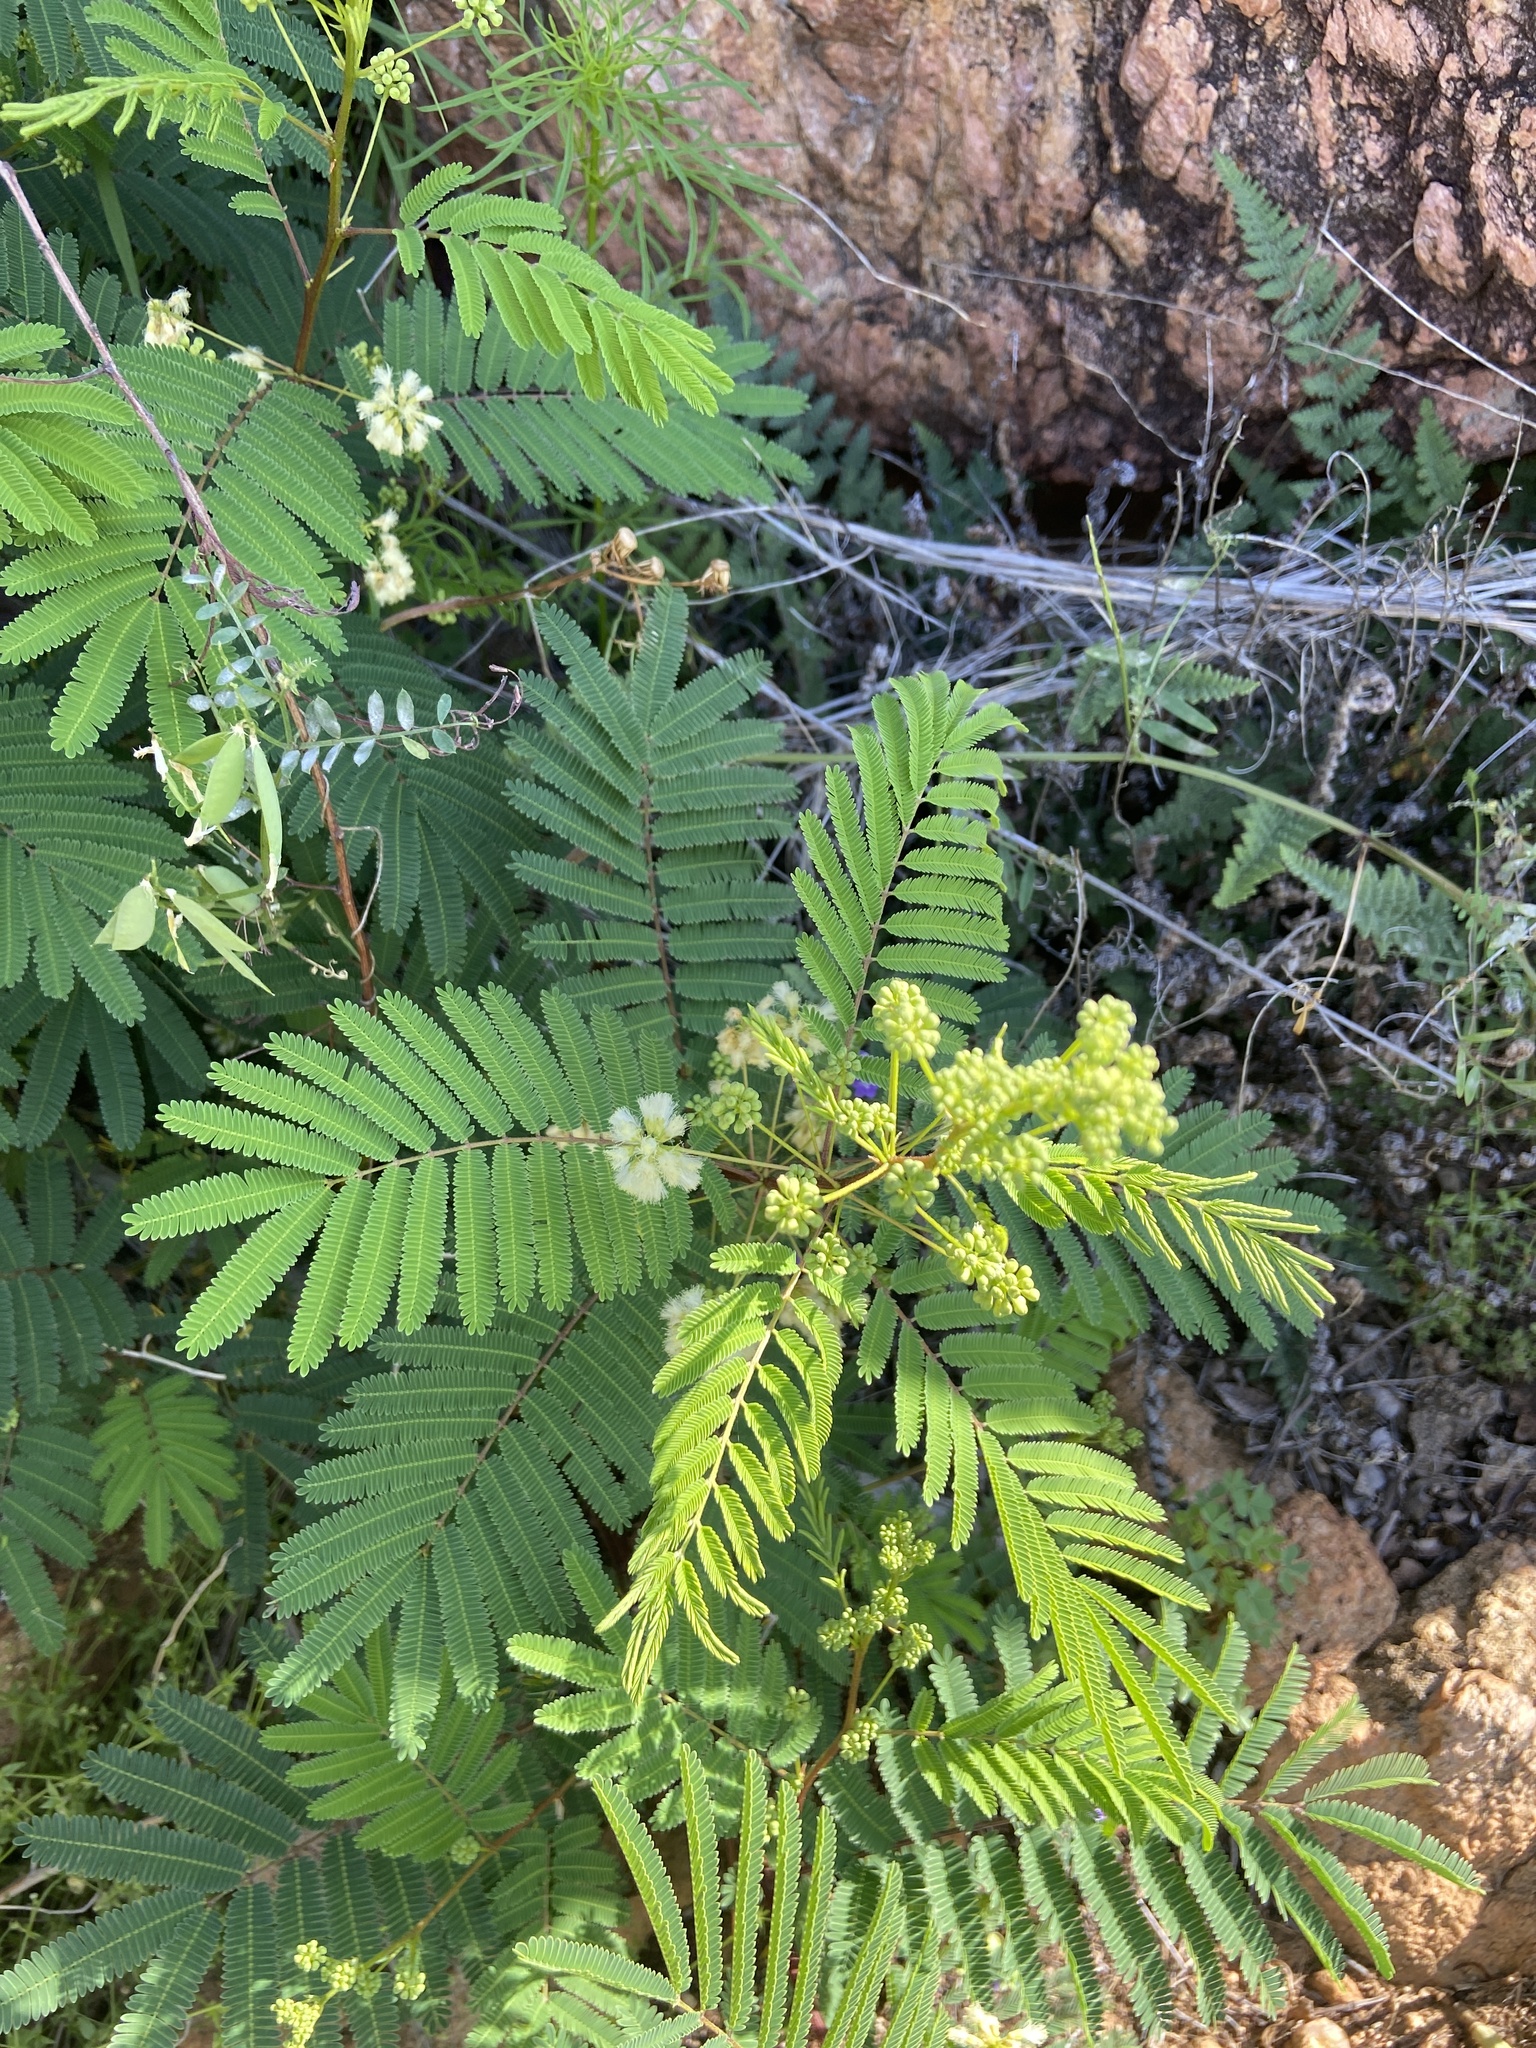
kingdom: Plantae
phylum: Tracheophyta
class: Magnoliopsida
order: Fabales
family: Fabaceae
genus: Acaciella
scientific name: Acaciella angustissima
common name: Prairie acacia
